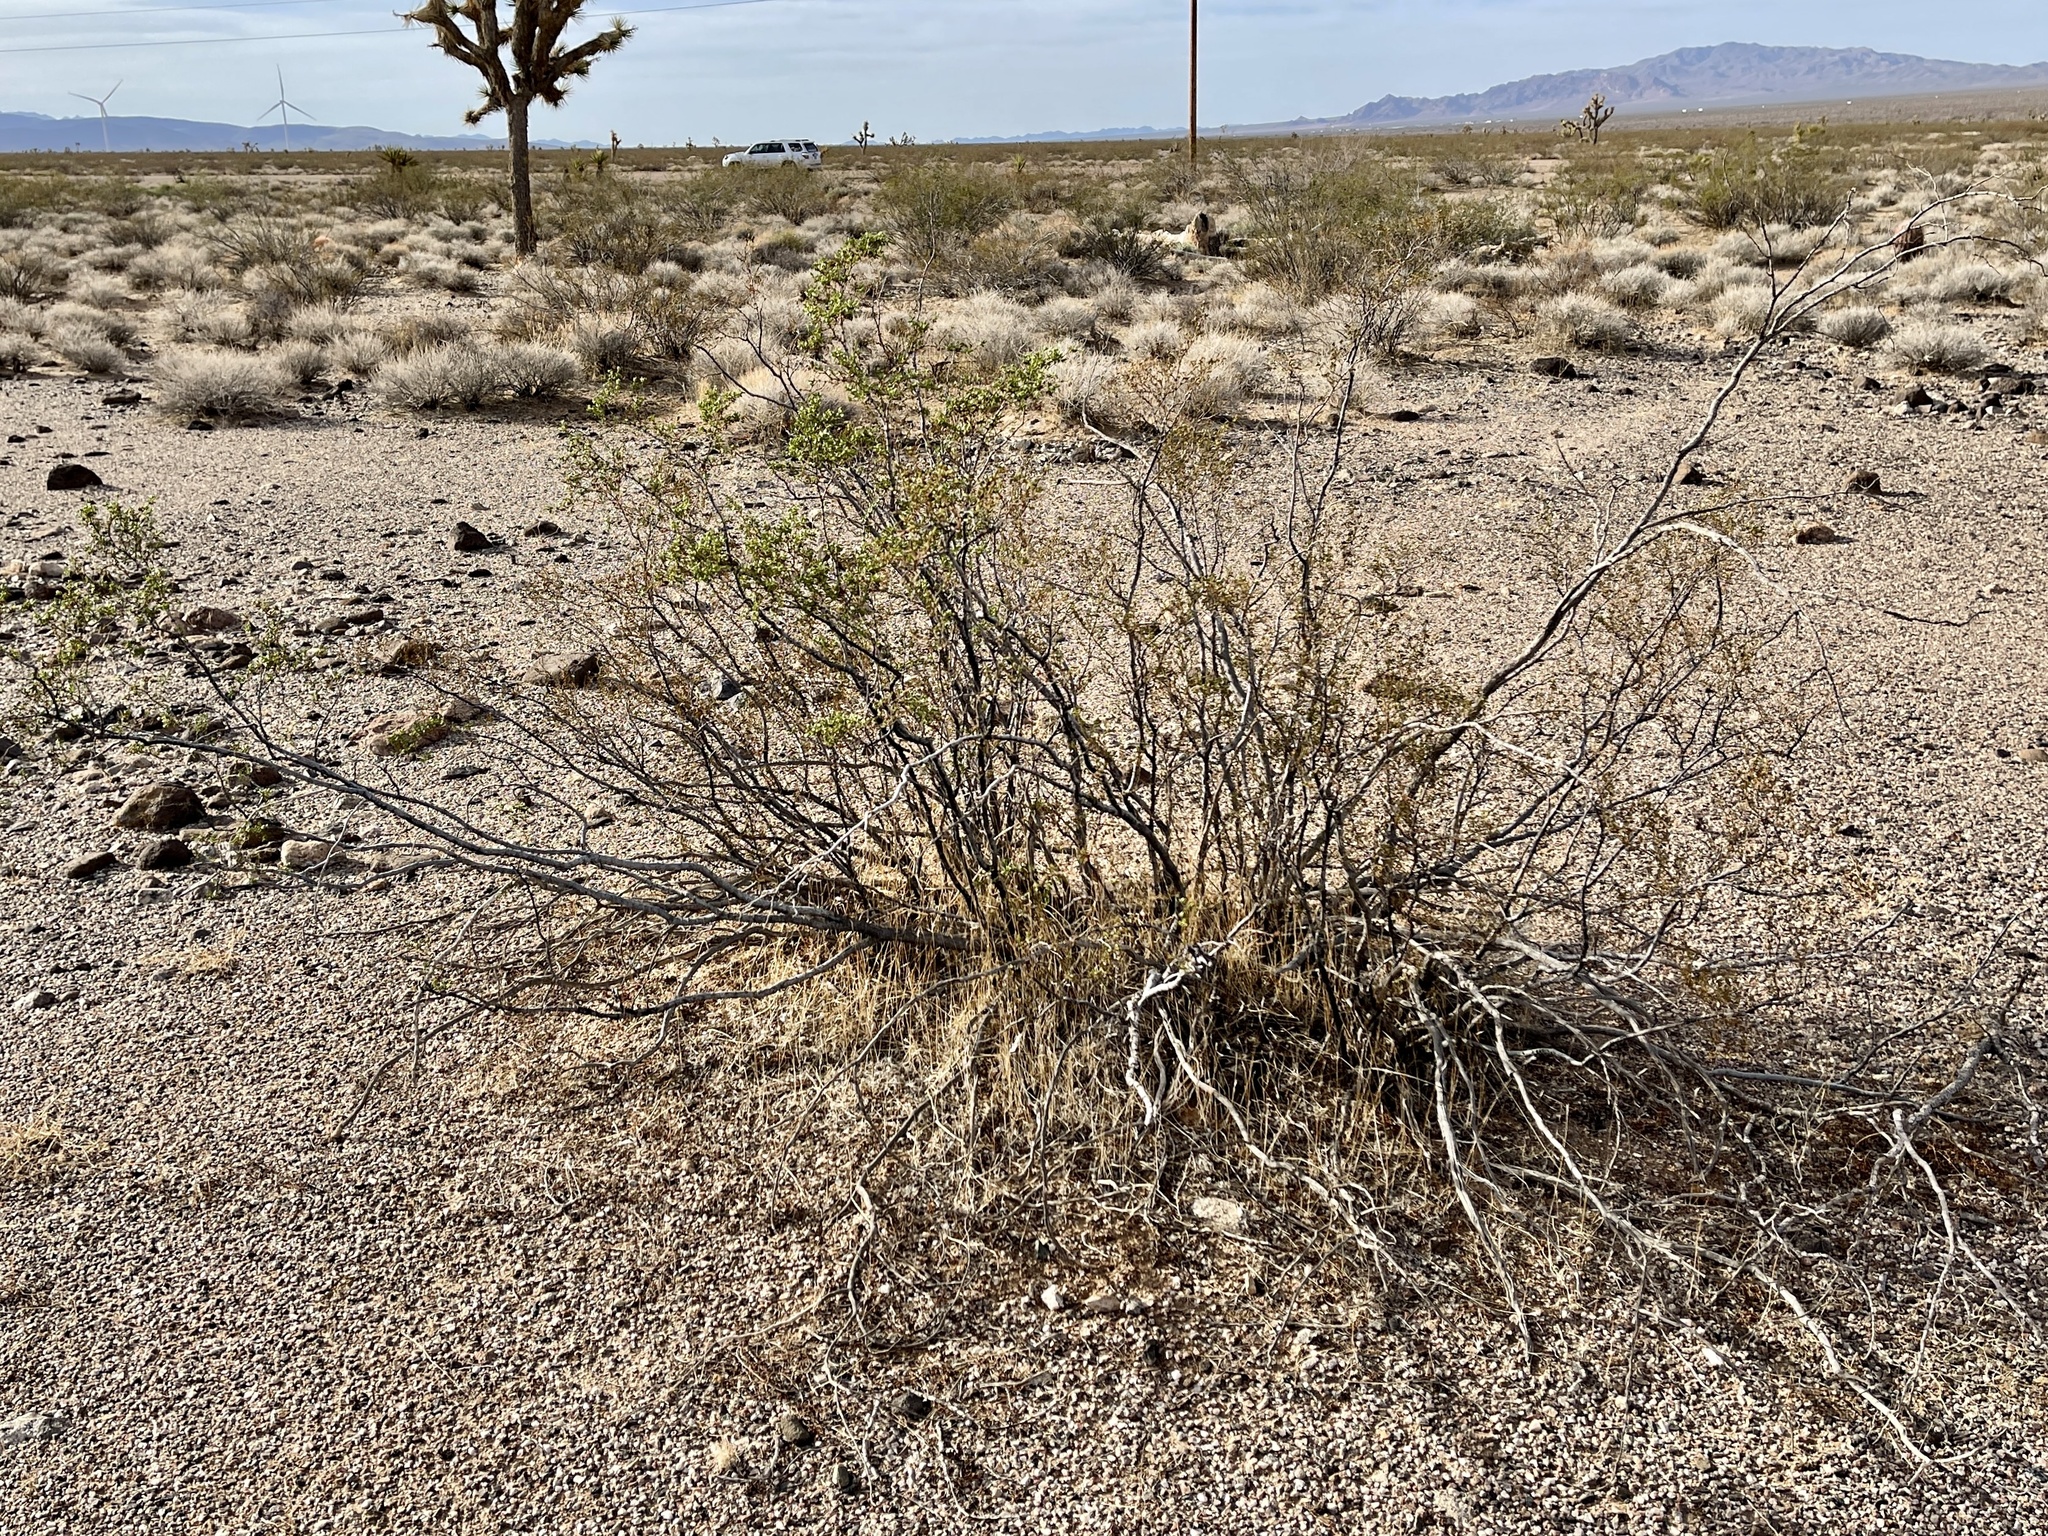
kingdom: Plantae
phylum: Tracheophyta
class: Magnoliopsida
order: Zygophyllales
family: Zygophyllaceae
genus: Larrea
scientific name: Larrea tridentata
